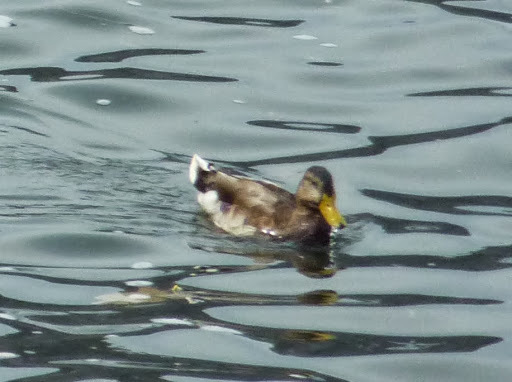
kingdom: Animalia
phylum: Chordata
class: Aves
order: Anseriformes
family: Anatidae
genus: Anas
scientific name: Anas platyrhynchos
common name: Mallard
